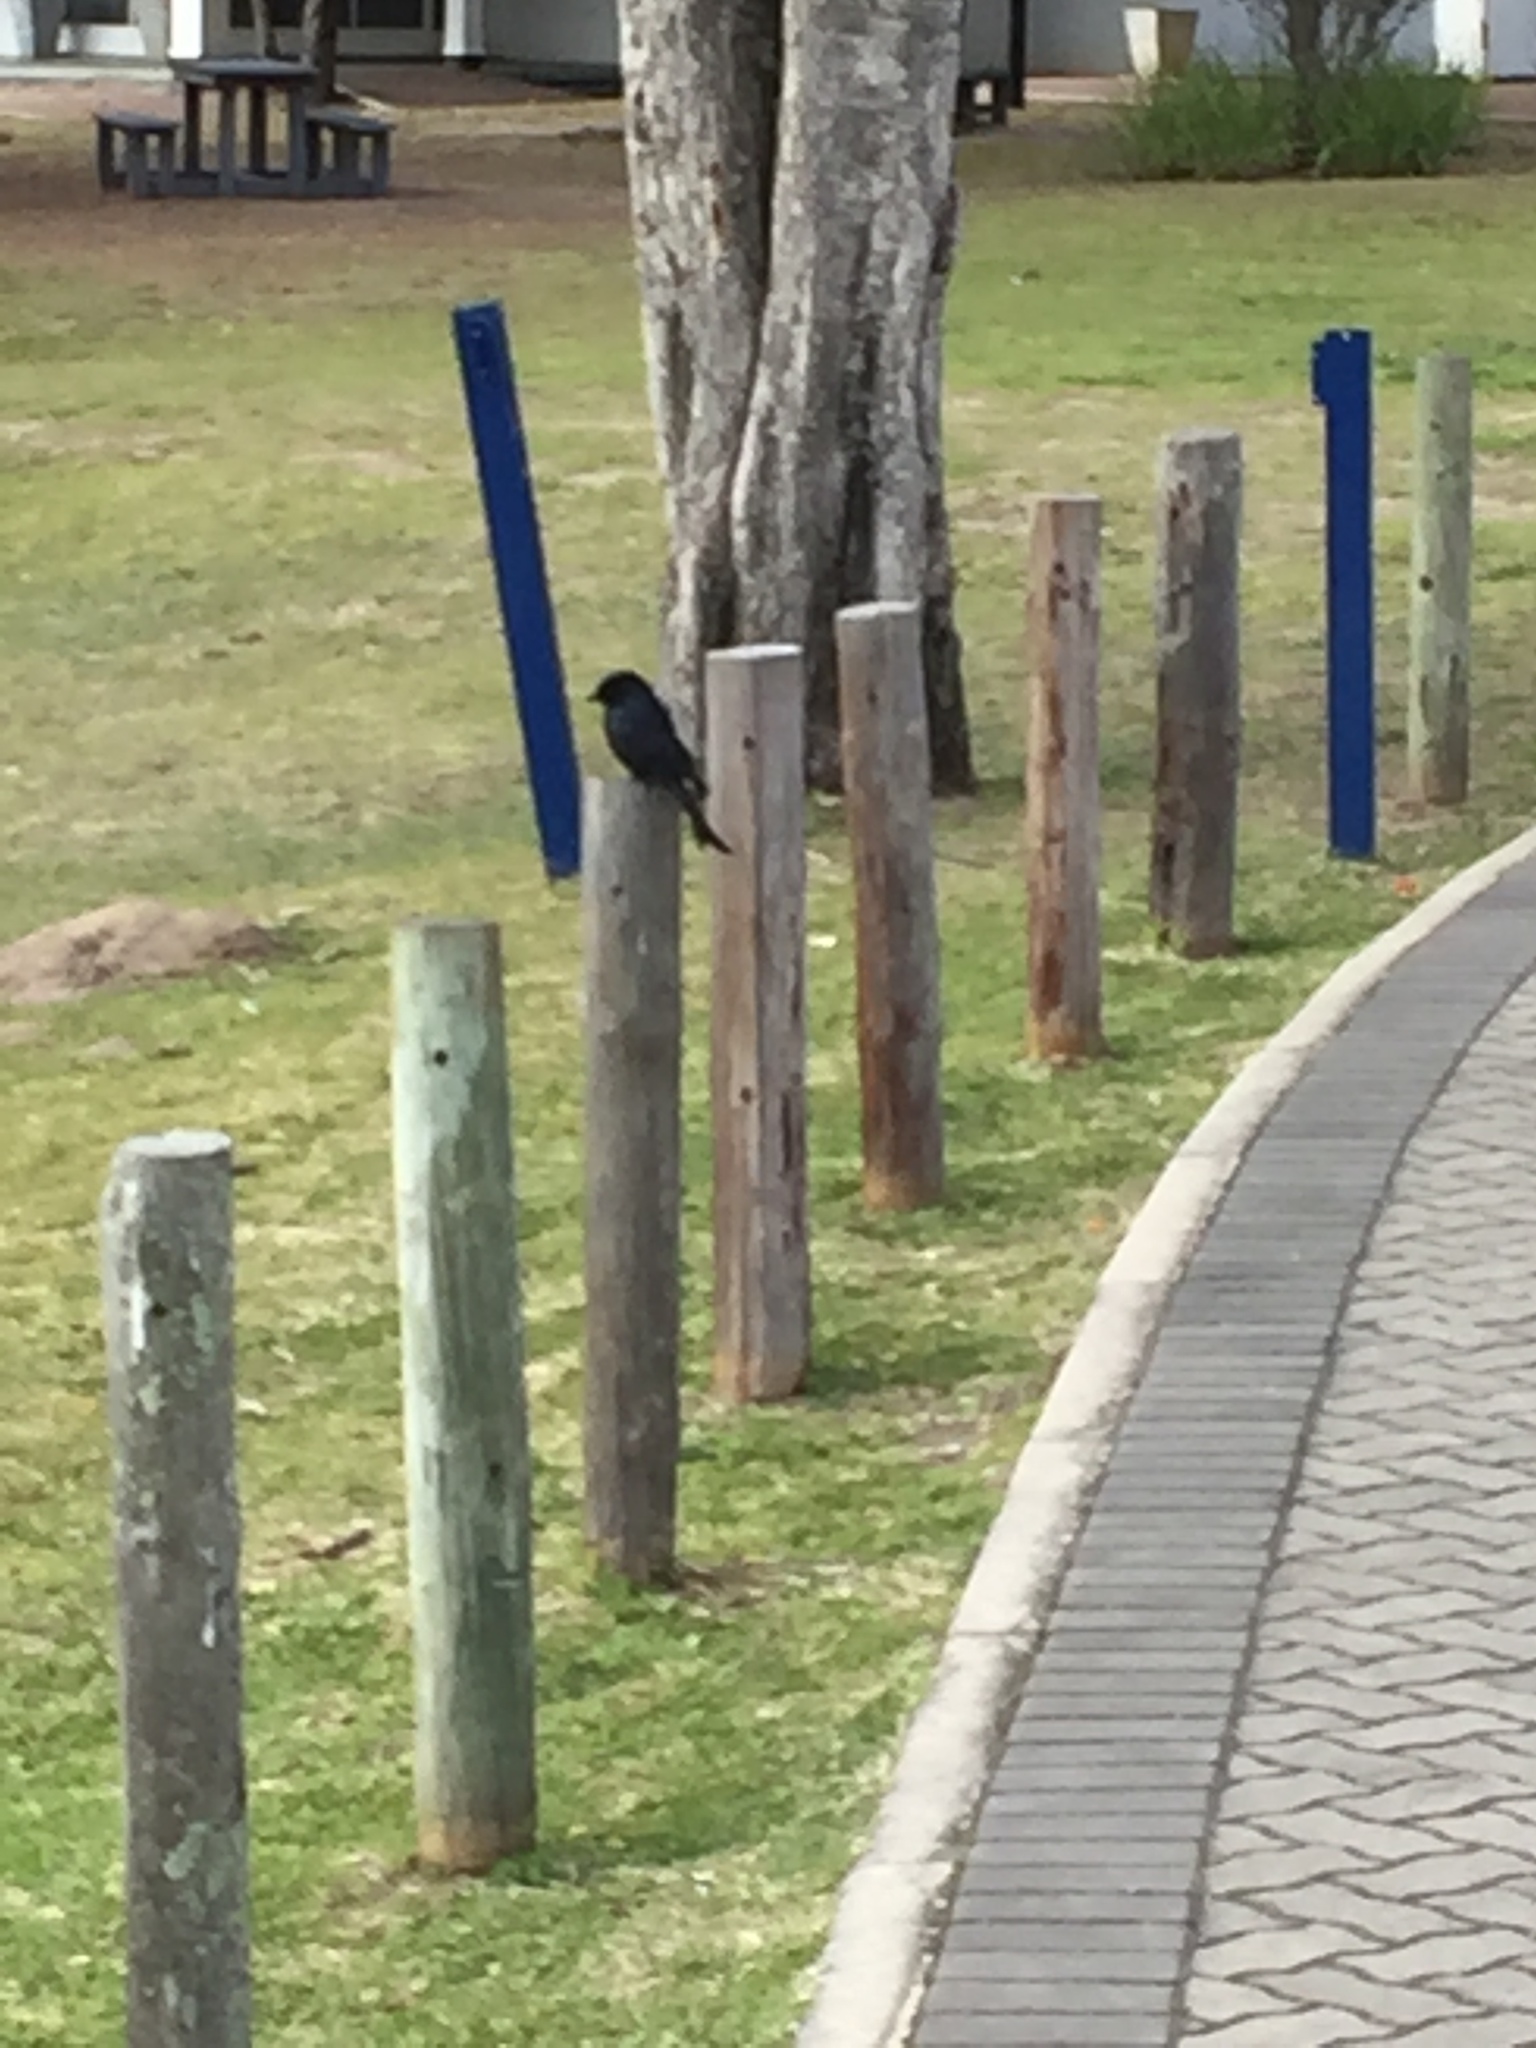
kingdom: Animalia
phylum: Chordata
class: Aves
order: Passeriformes
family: Dicruridae
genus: Dicrurus
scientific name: Dicrurus adsimilis
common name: Fork-tailed drongo
